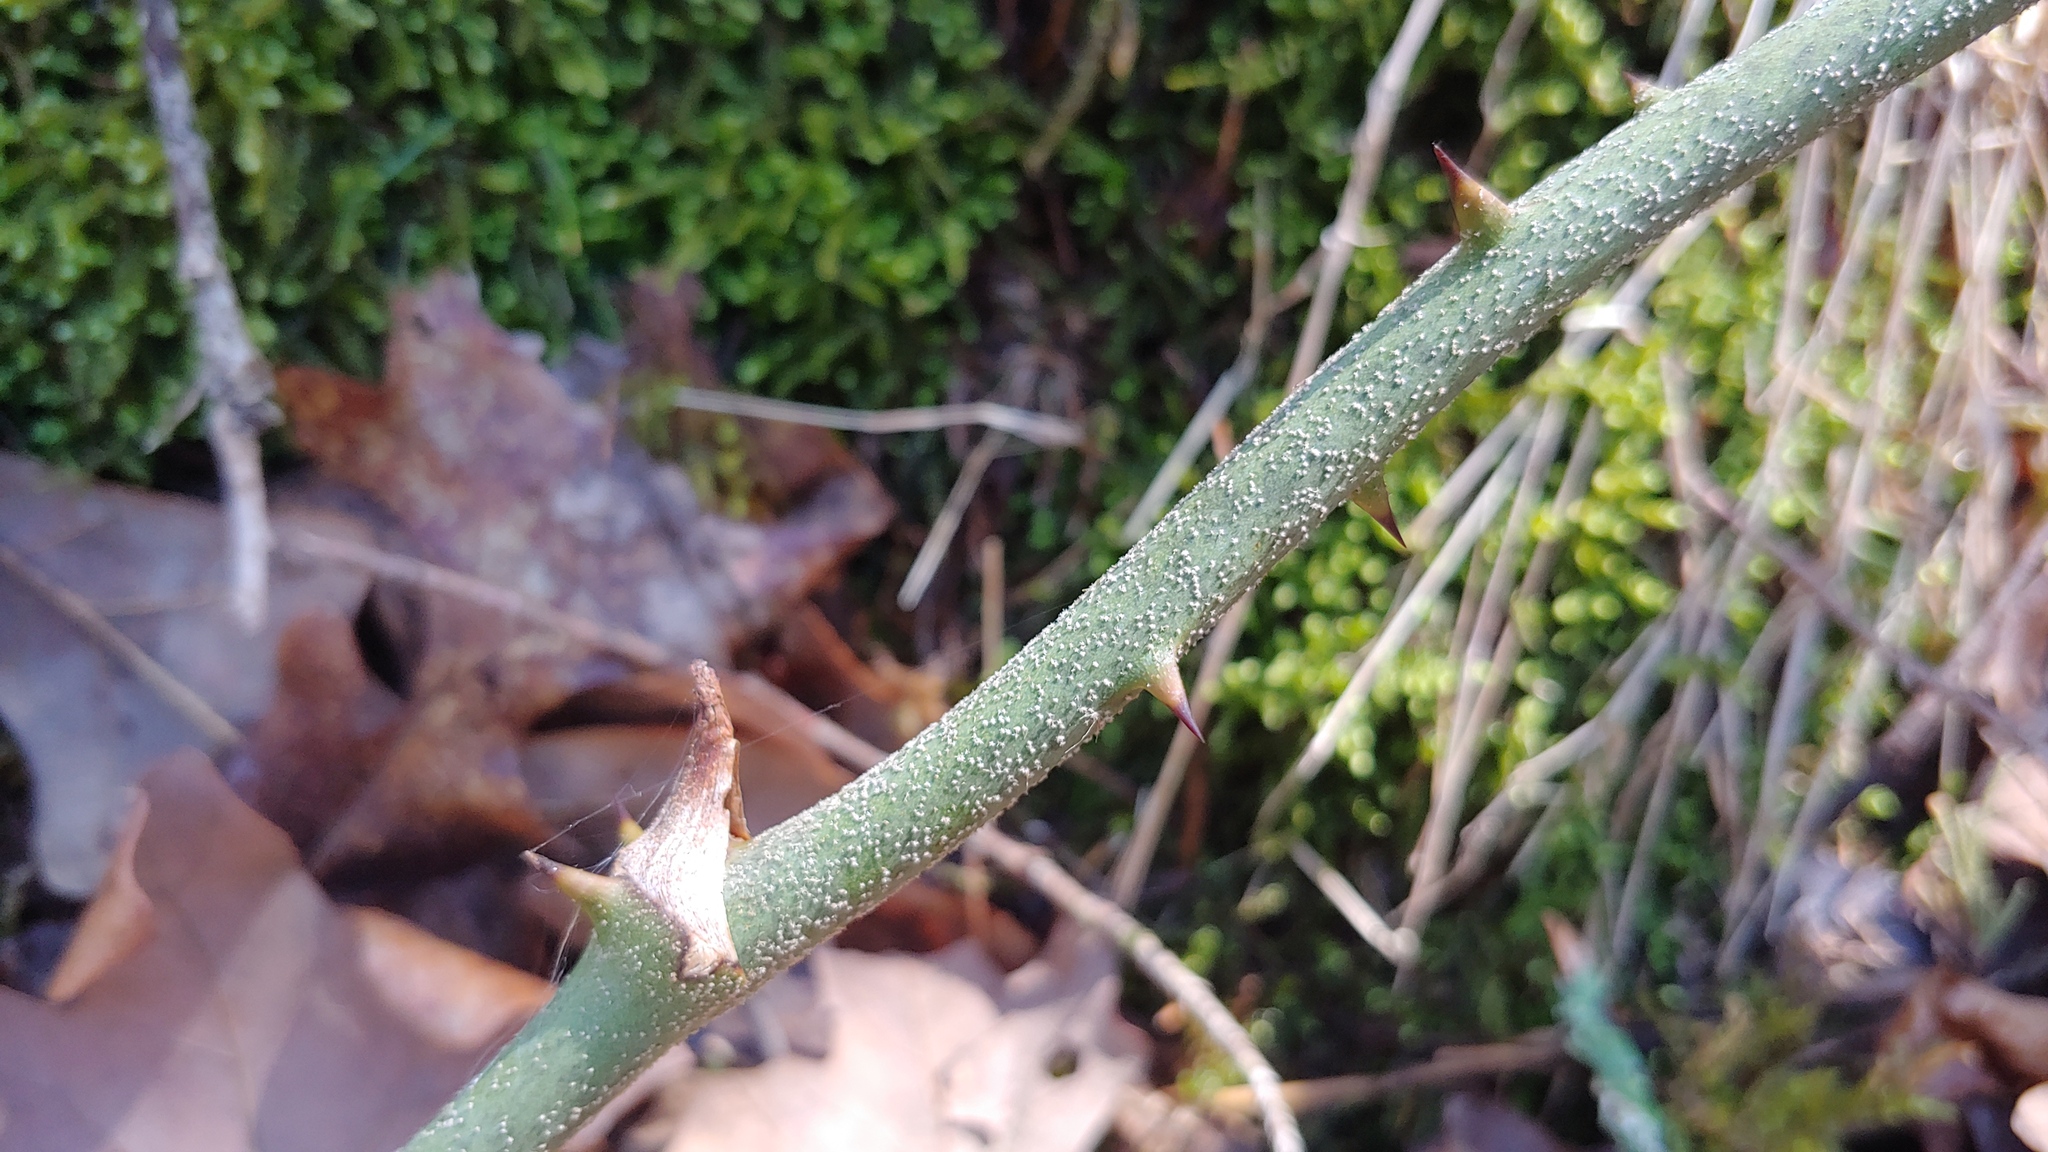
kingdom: Plantae
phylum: Tracheophyta
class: Liliopsida
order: Liliales
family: Smilacaceae
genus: Smilax
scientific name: Smilax bona-nox
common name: Catbrier
